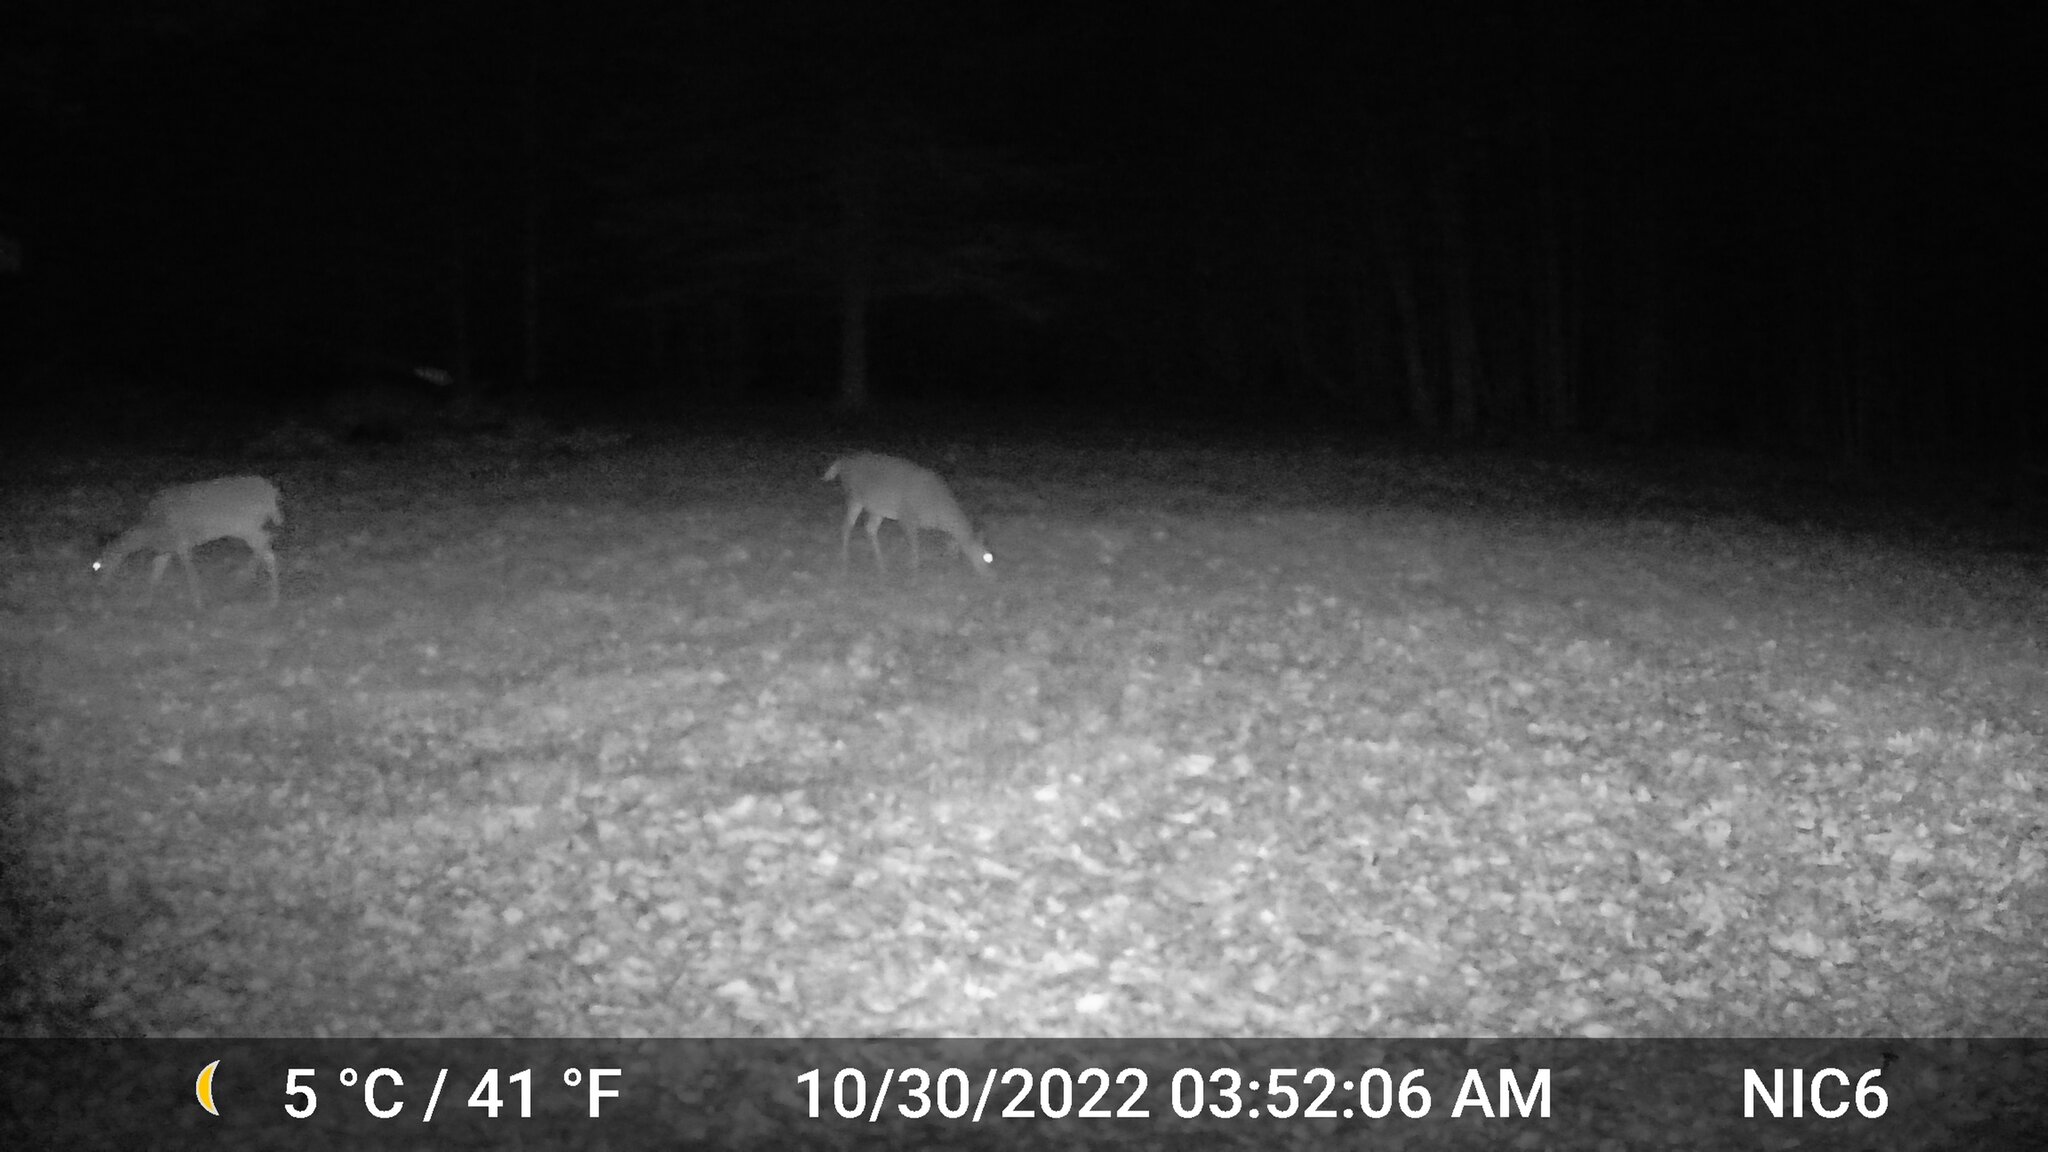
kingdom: Animalia
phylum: Chordata
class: Mammalia
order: Artiodactyla
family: Cervidae
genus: Odocoileus
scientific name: Odocoileus virginianus
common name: White-tailed deer
